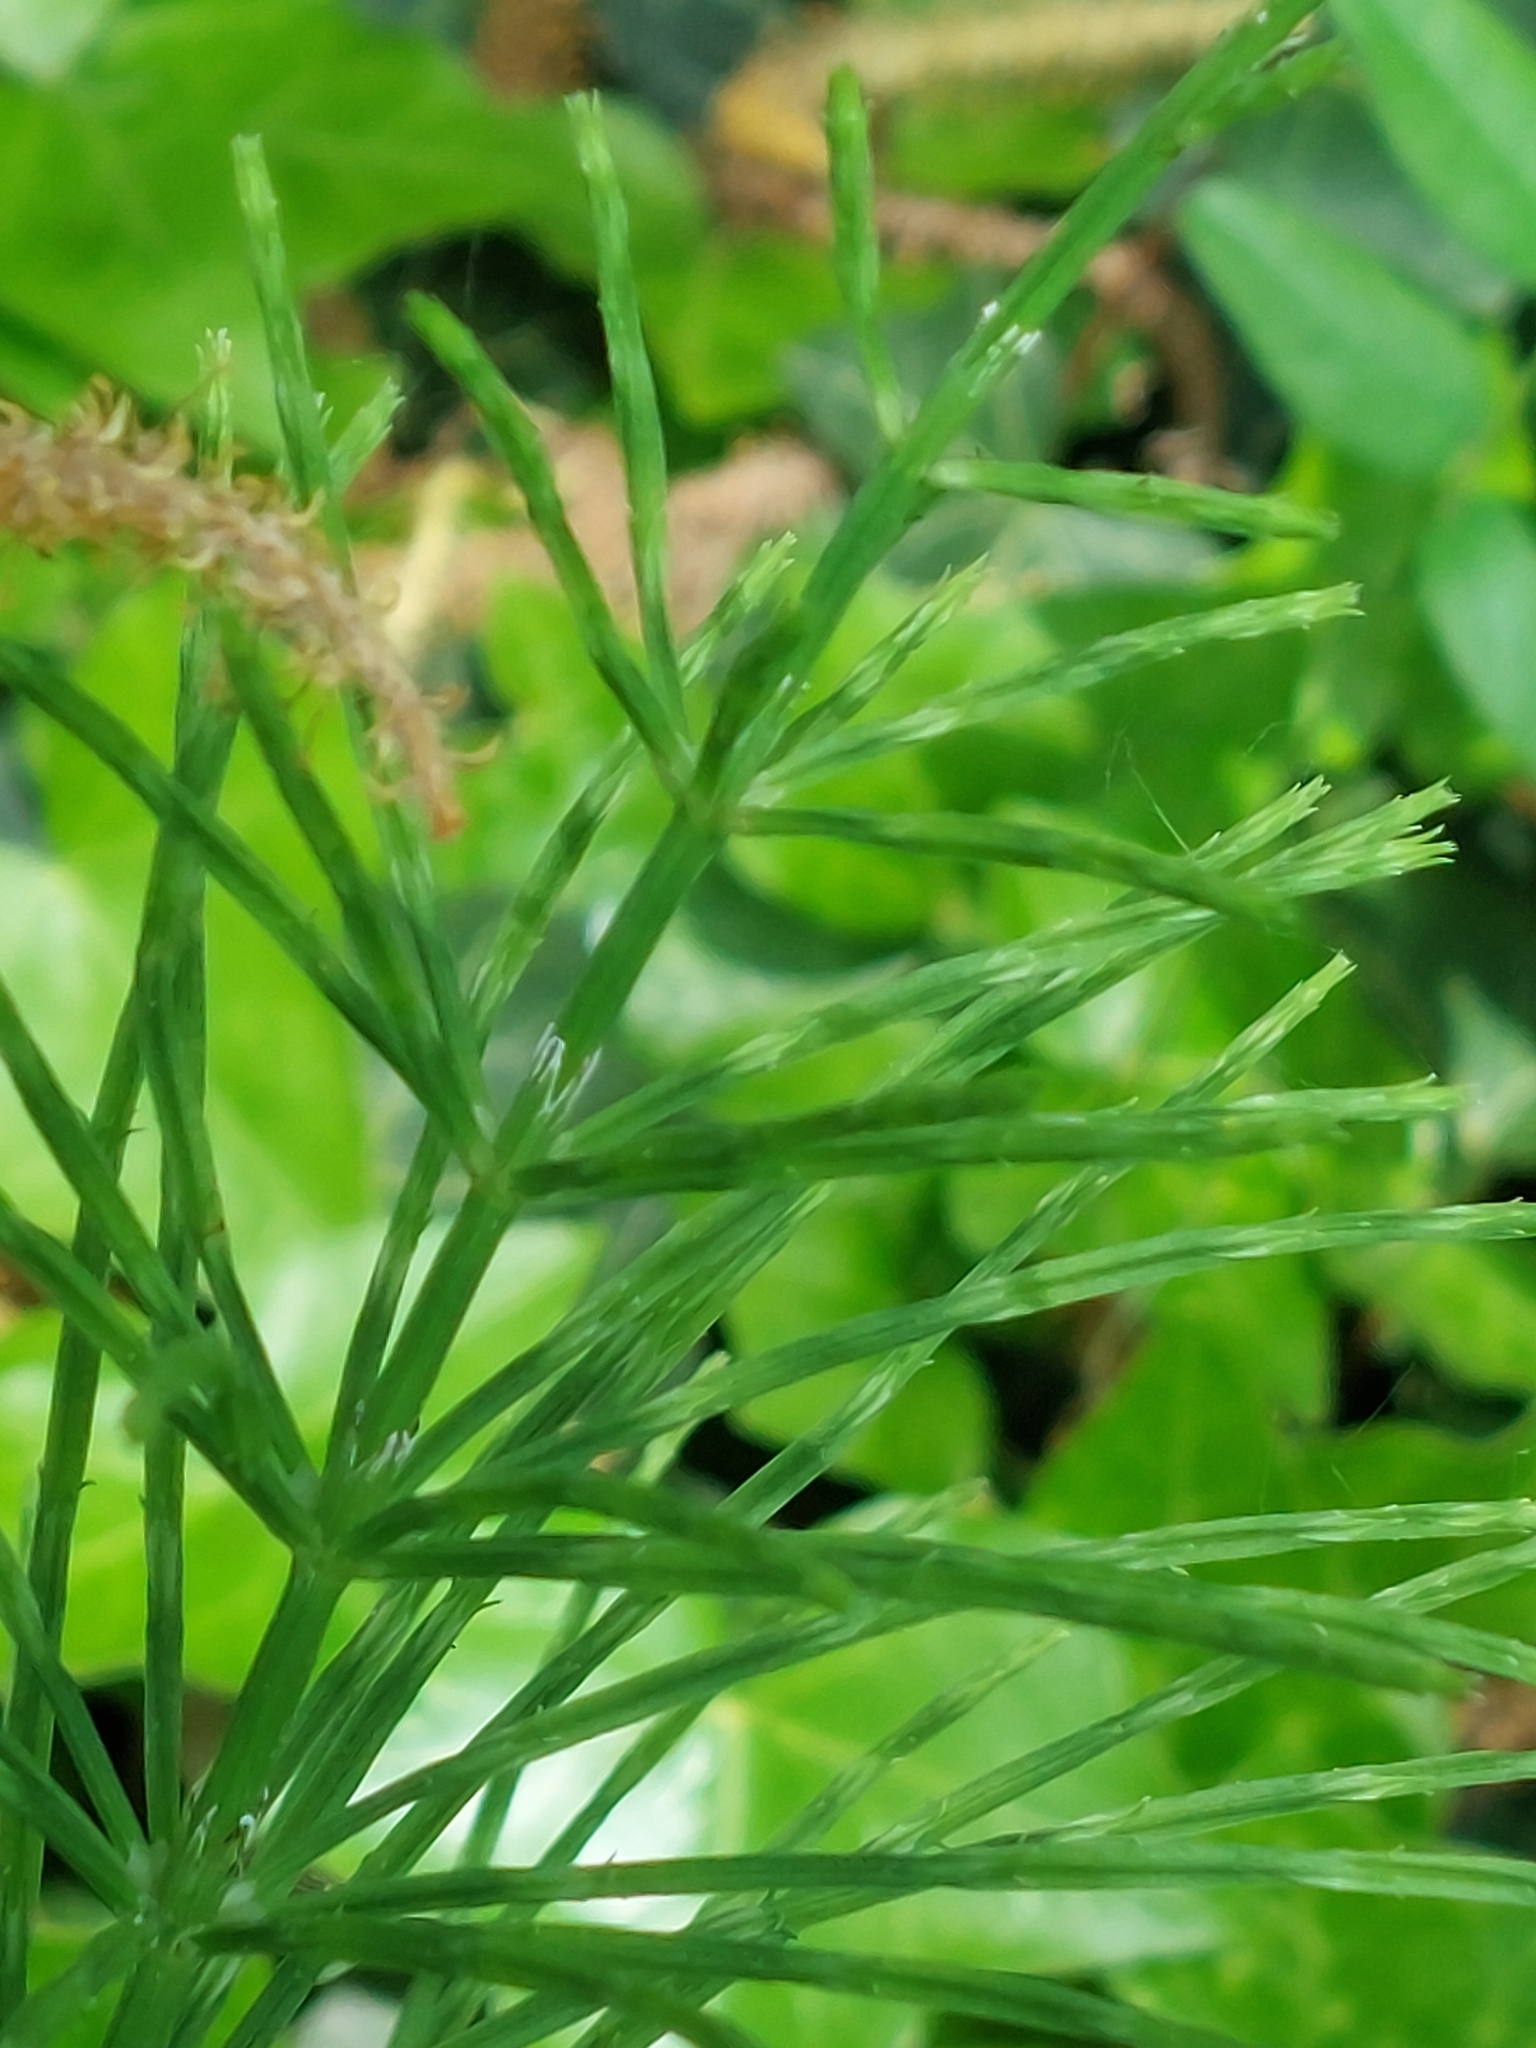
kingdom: Plantae
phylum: Tracheophyta
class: Polypodiopsida
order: Equisetales
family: Equisetaceae
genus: Equisetum
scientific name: Equisetum arvense
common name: Field horsetail
